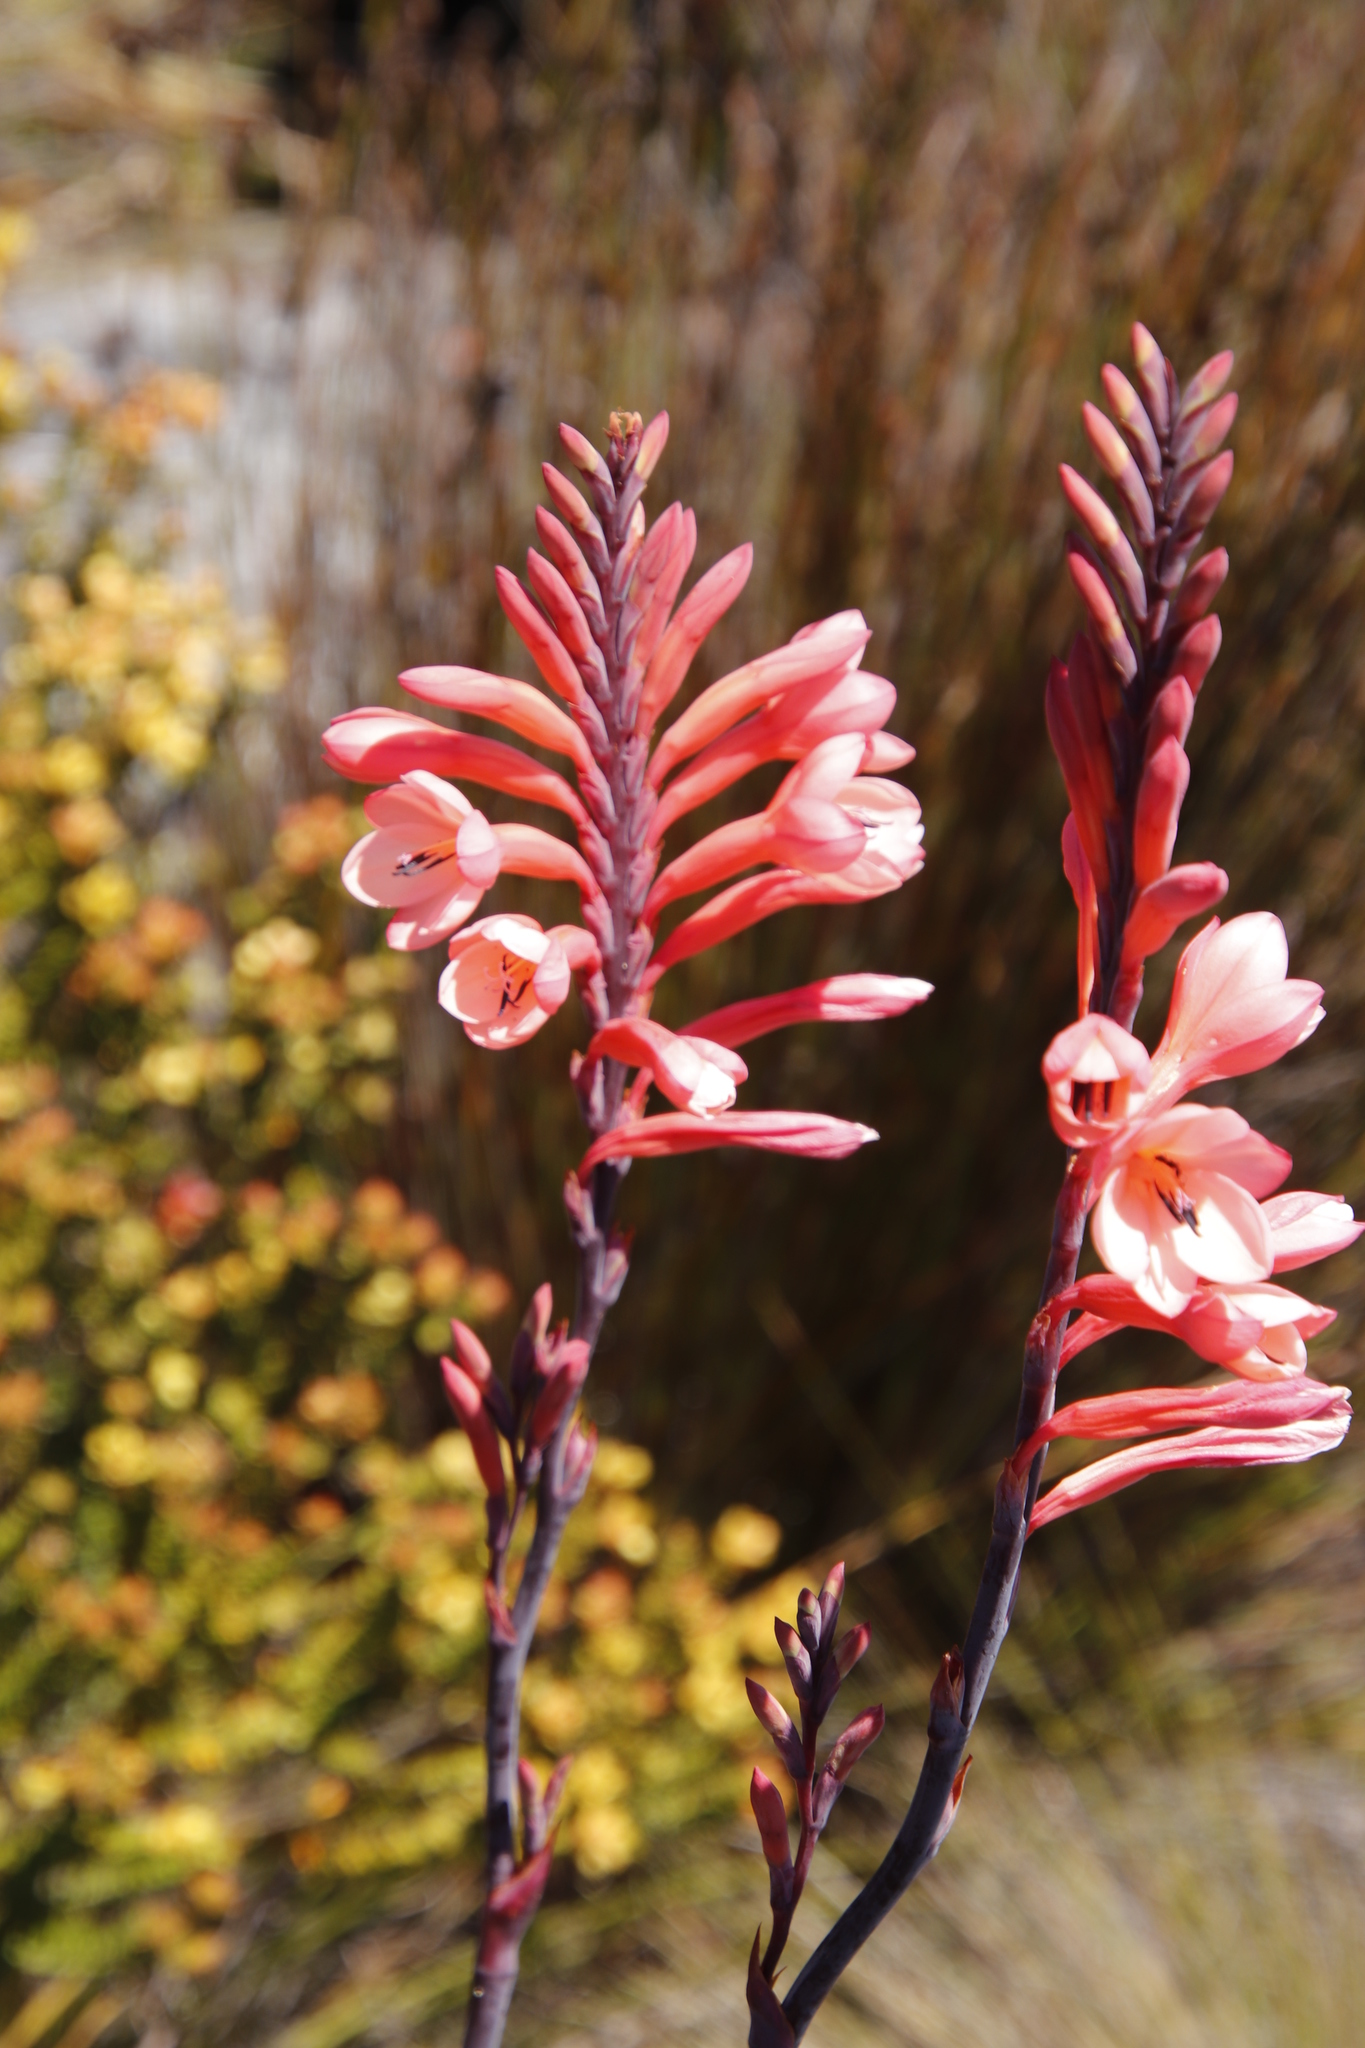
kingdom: Plantae
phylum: Tracheophyta
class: Liliopsida
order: Asparagales
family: Iridaceae
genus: Watsonia
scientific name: Watsonia tabularis
